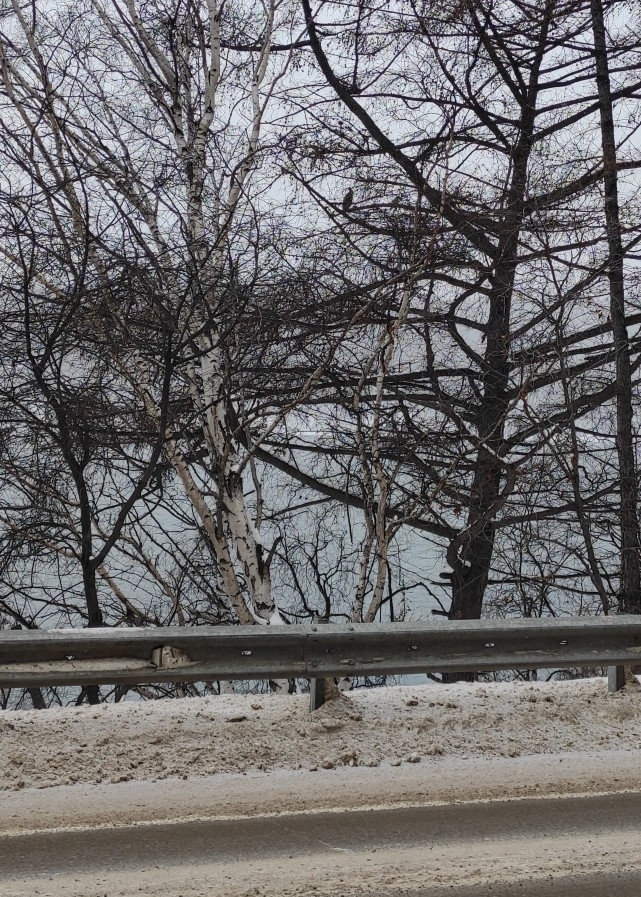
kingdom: Animalia
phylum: Chordata
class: Aves
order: Suliformes
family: Phalacrocoracidae
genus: Phalacrocorax
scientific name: Phalacrocorax carbo
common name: Great cormorant
